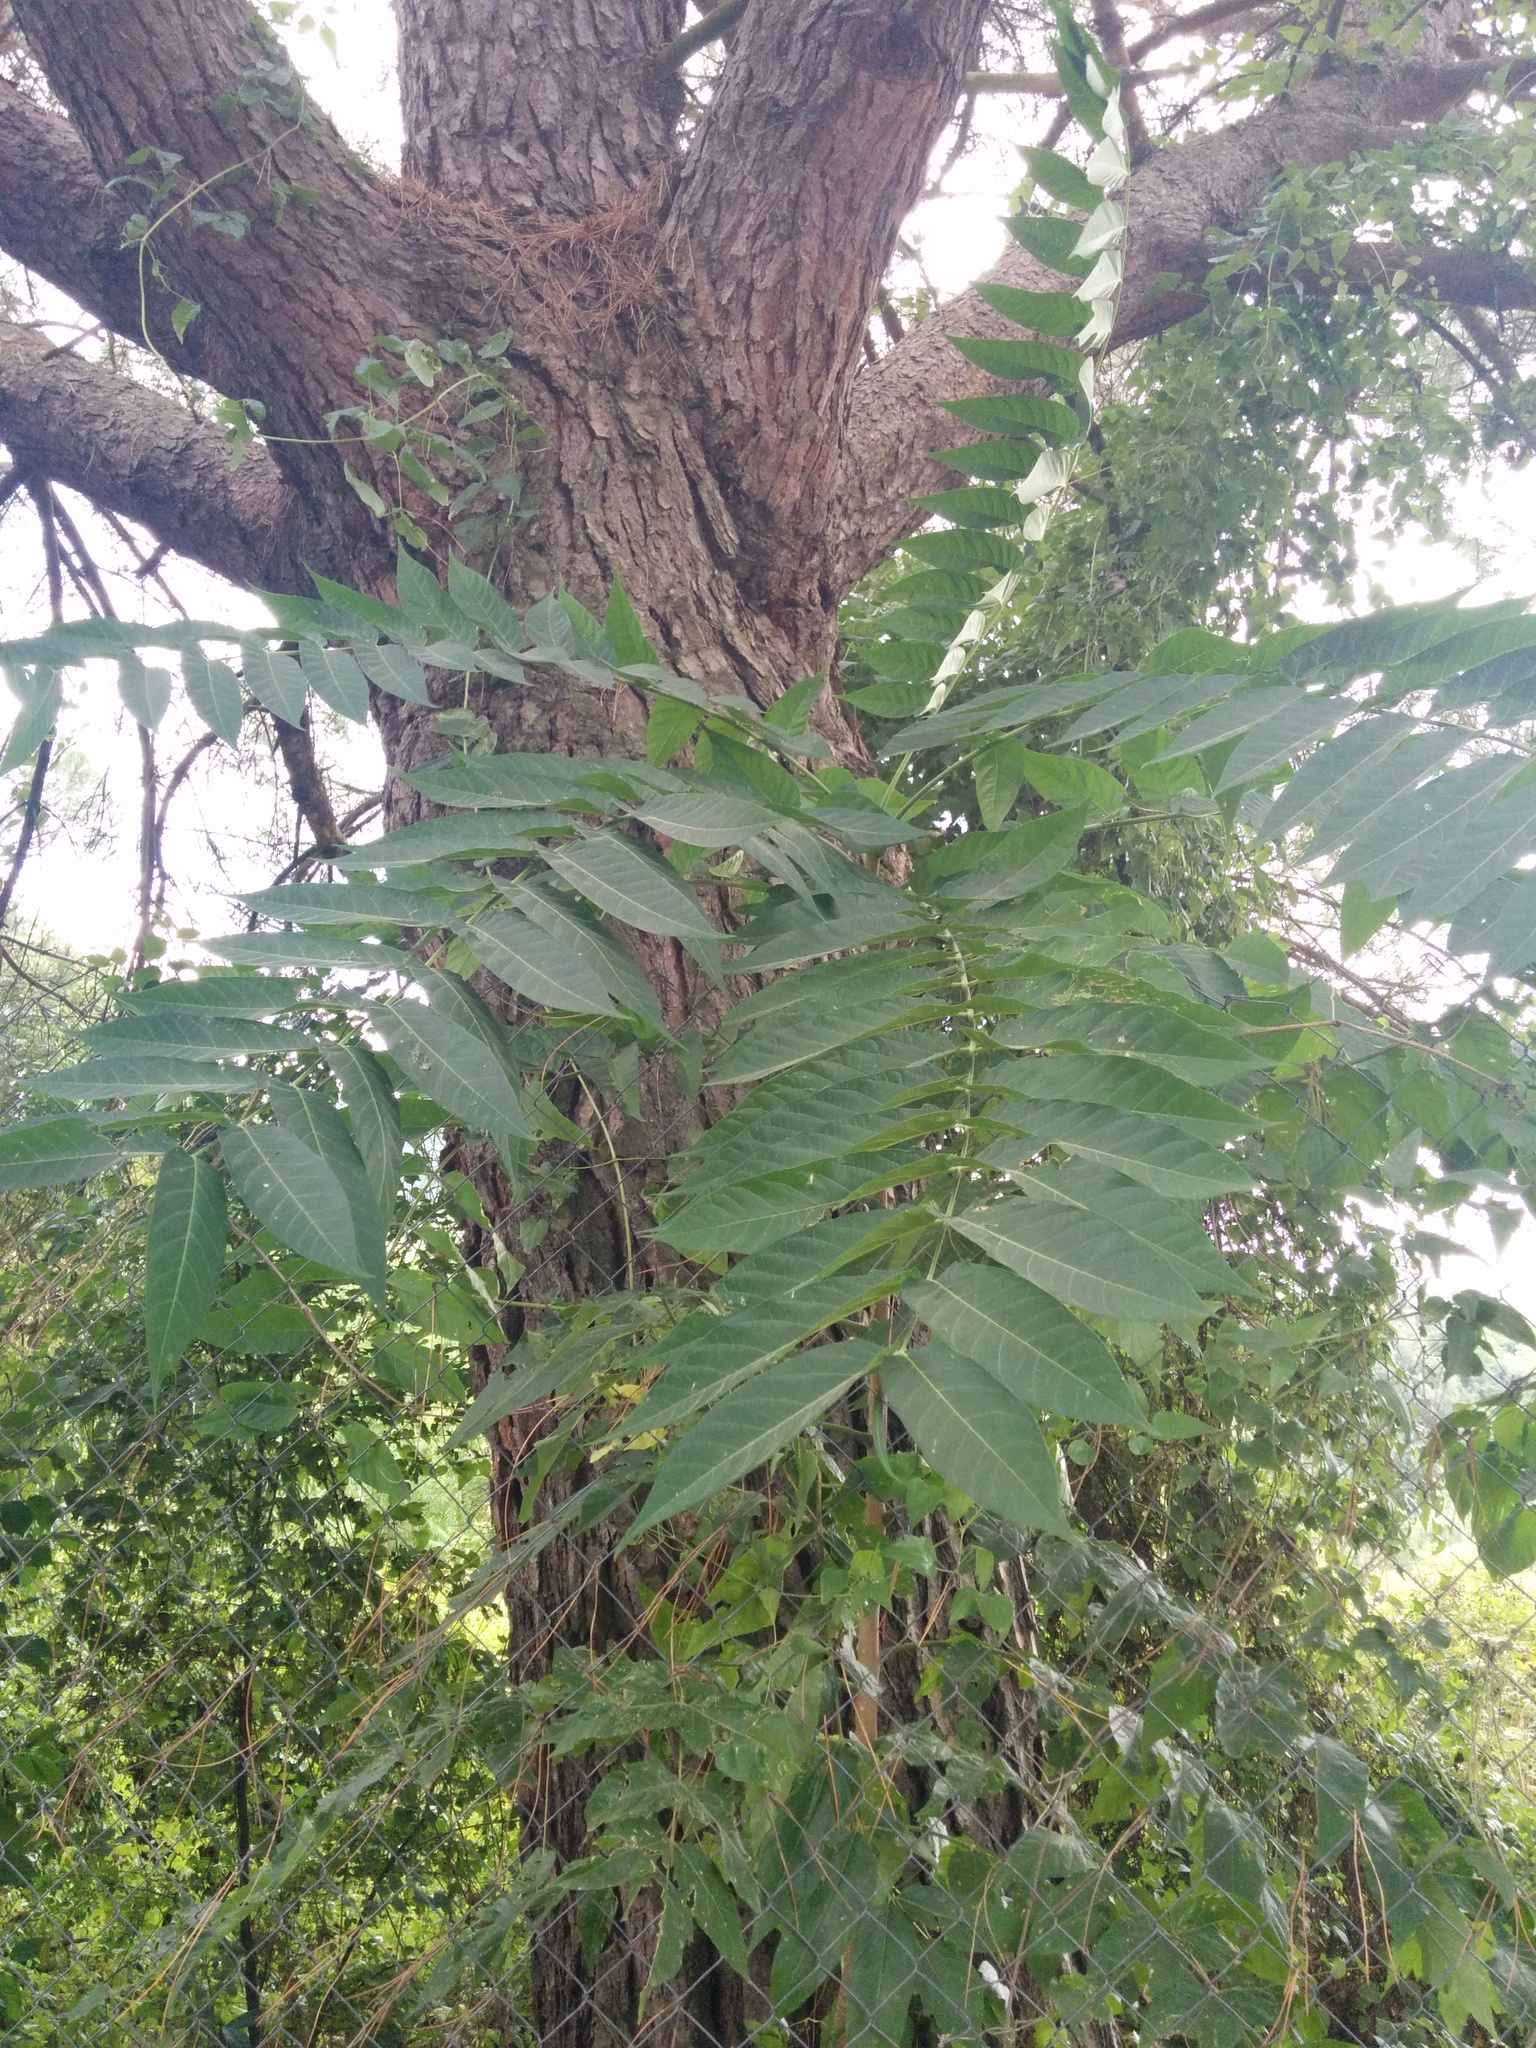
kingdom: Plantae
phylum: Tracheophyta
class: Magnoliopsida
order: Sapindales
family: Simaroubaceae
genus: Ailanthus
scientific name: Ailanthus altissima
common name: Tree-of-heaven
